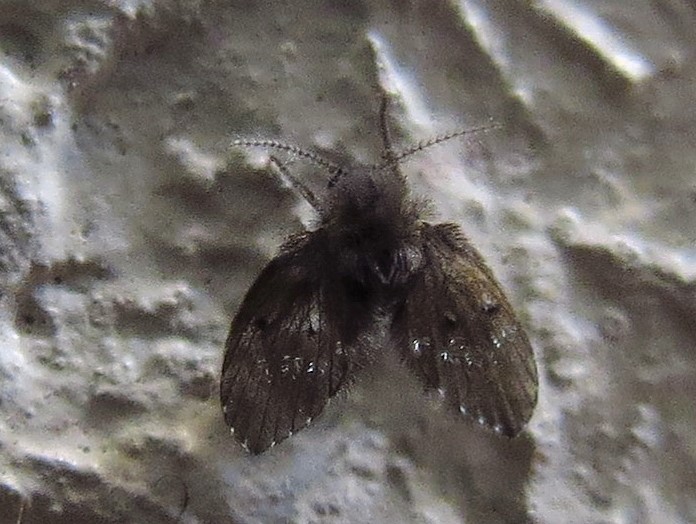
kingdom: Animalia
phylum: Arthropoda
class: Insecta
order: Diptera
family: Psychodidae
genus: Clogmia
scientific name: Clogmia albipunctatus
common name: White-spotted moth fly
